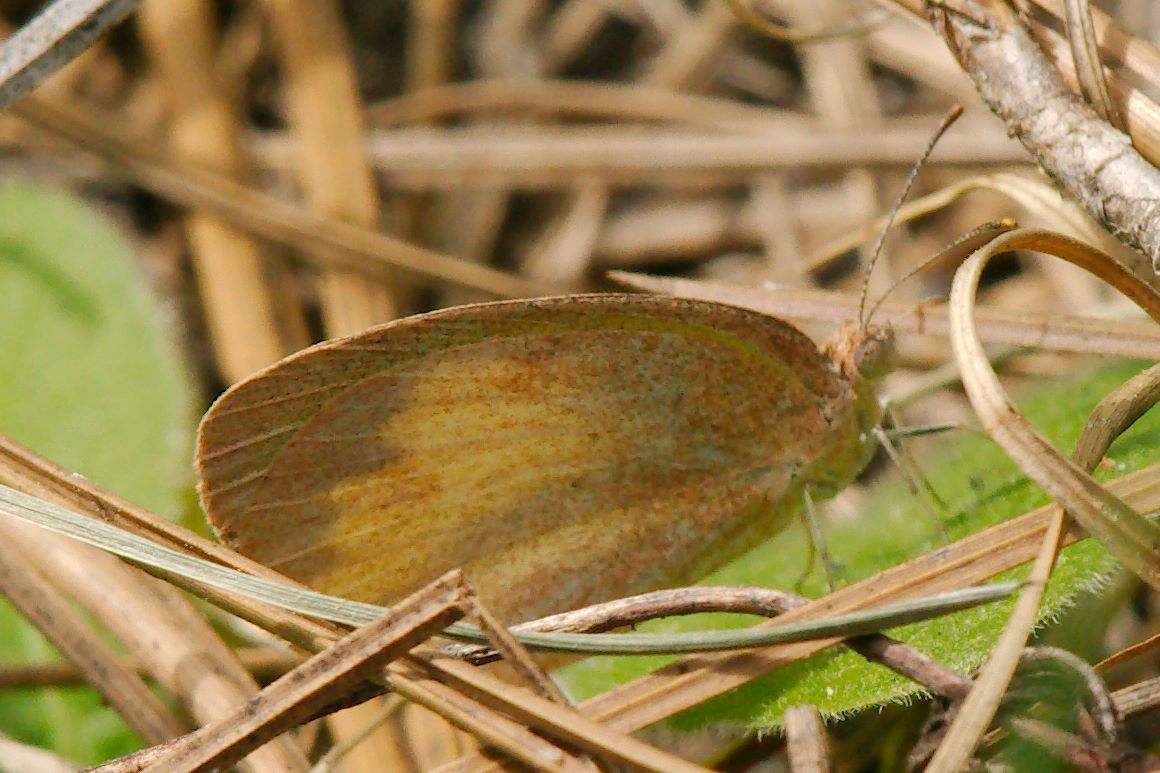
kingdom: Animalia
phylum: Arthropoda
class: Insecta
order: Lepidoptera
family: Pieridae
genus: Eurema
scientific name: Eurema daira
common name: Barred sulphur
